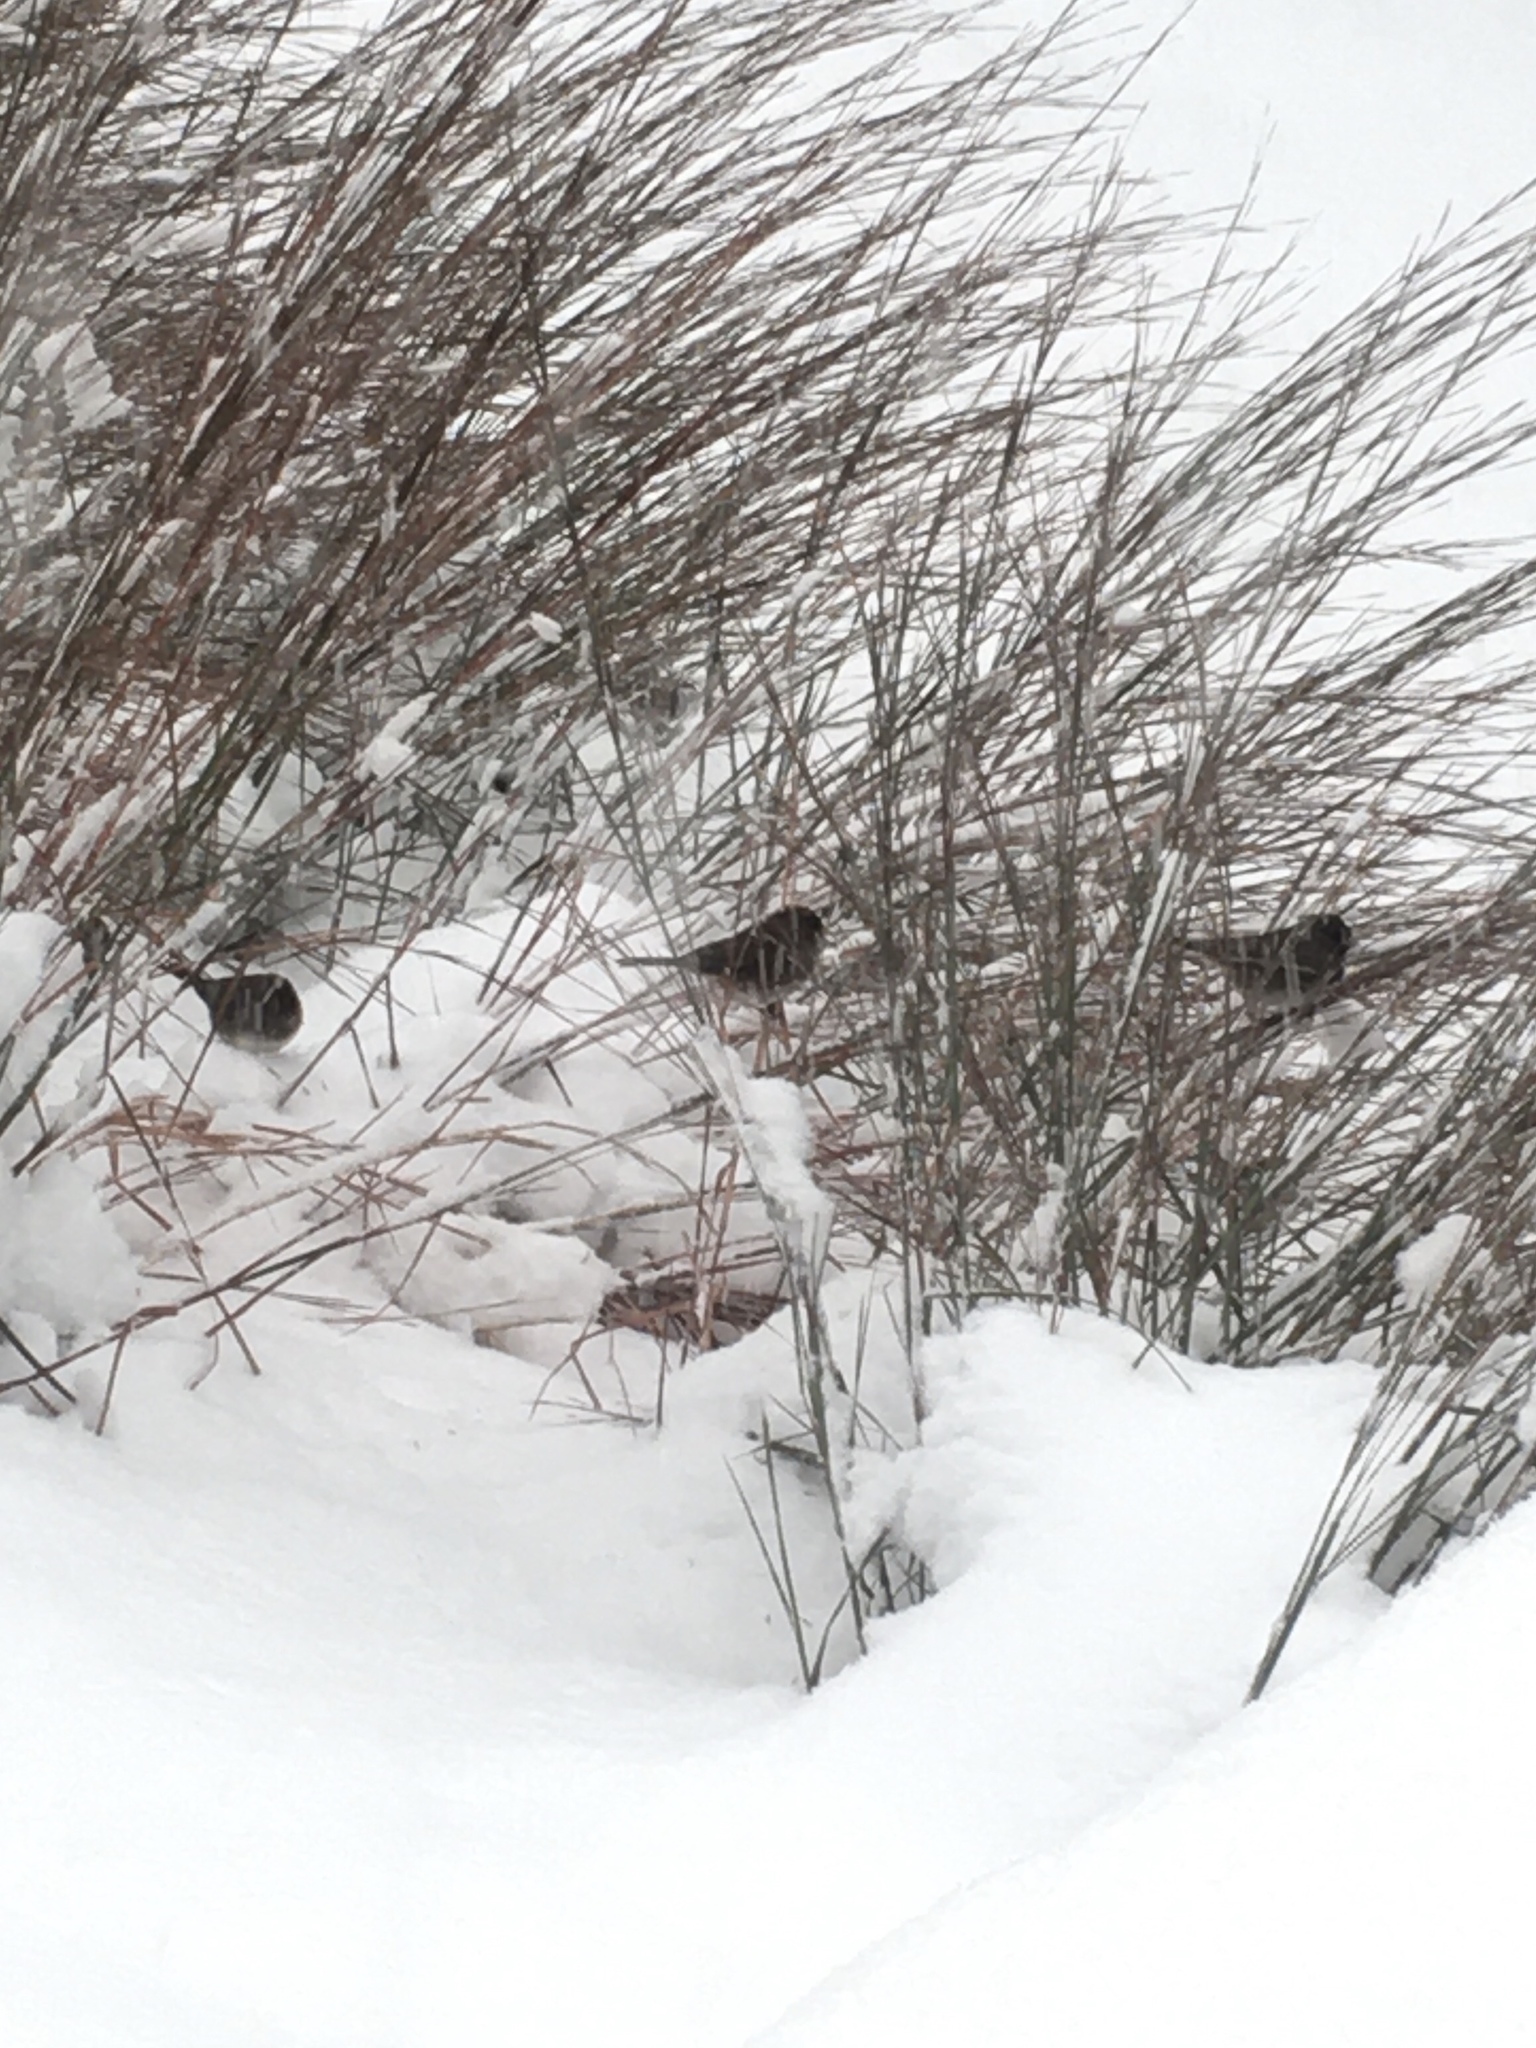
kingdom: Animalia
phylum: Chordata
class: Aves
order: Passeriformes
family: Passerellidae
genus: Junco
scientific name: Junco hyemalis
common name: Dark-eyed junco
